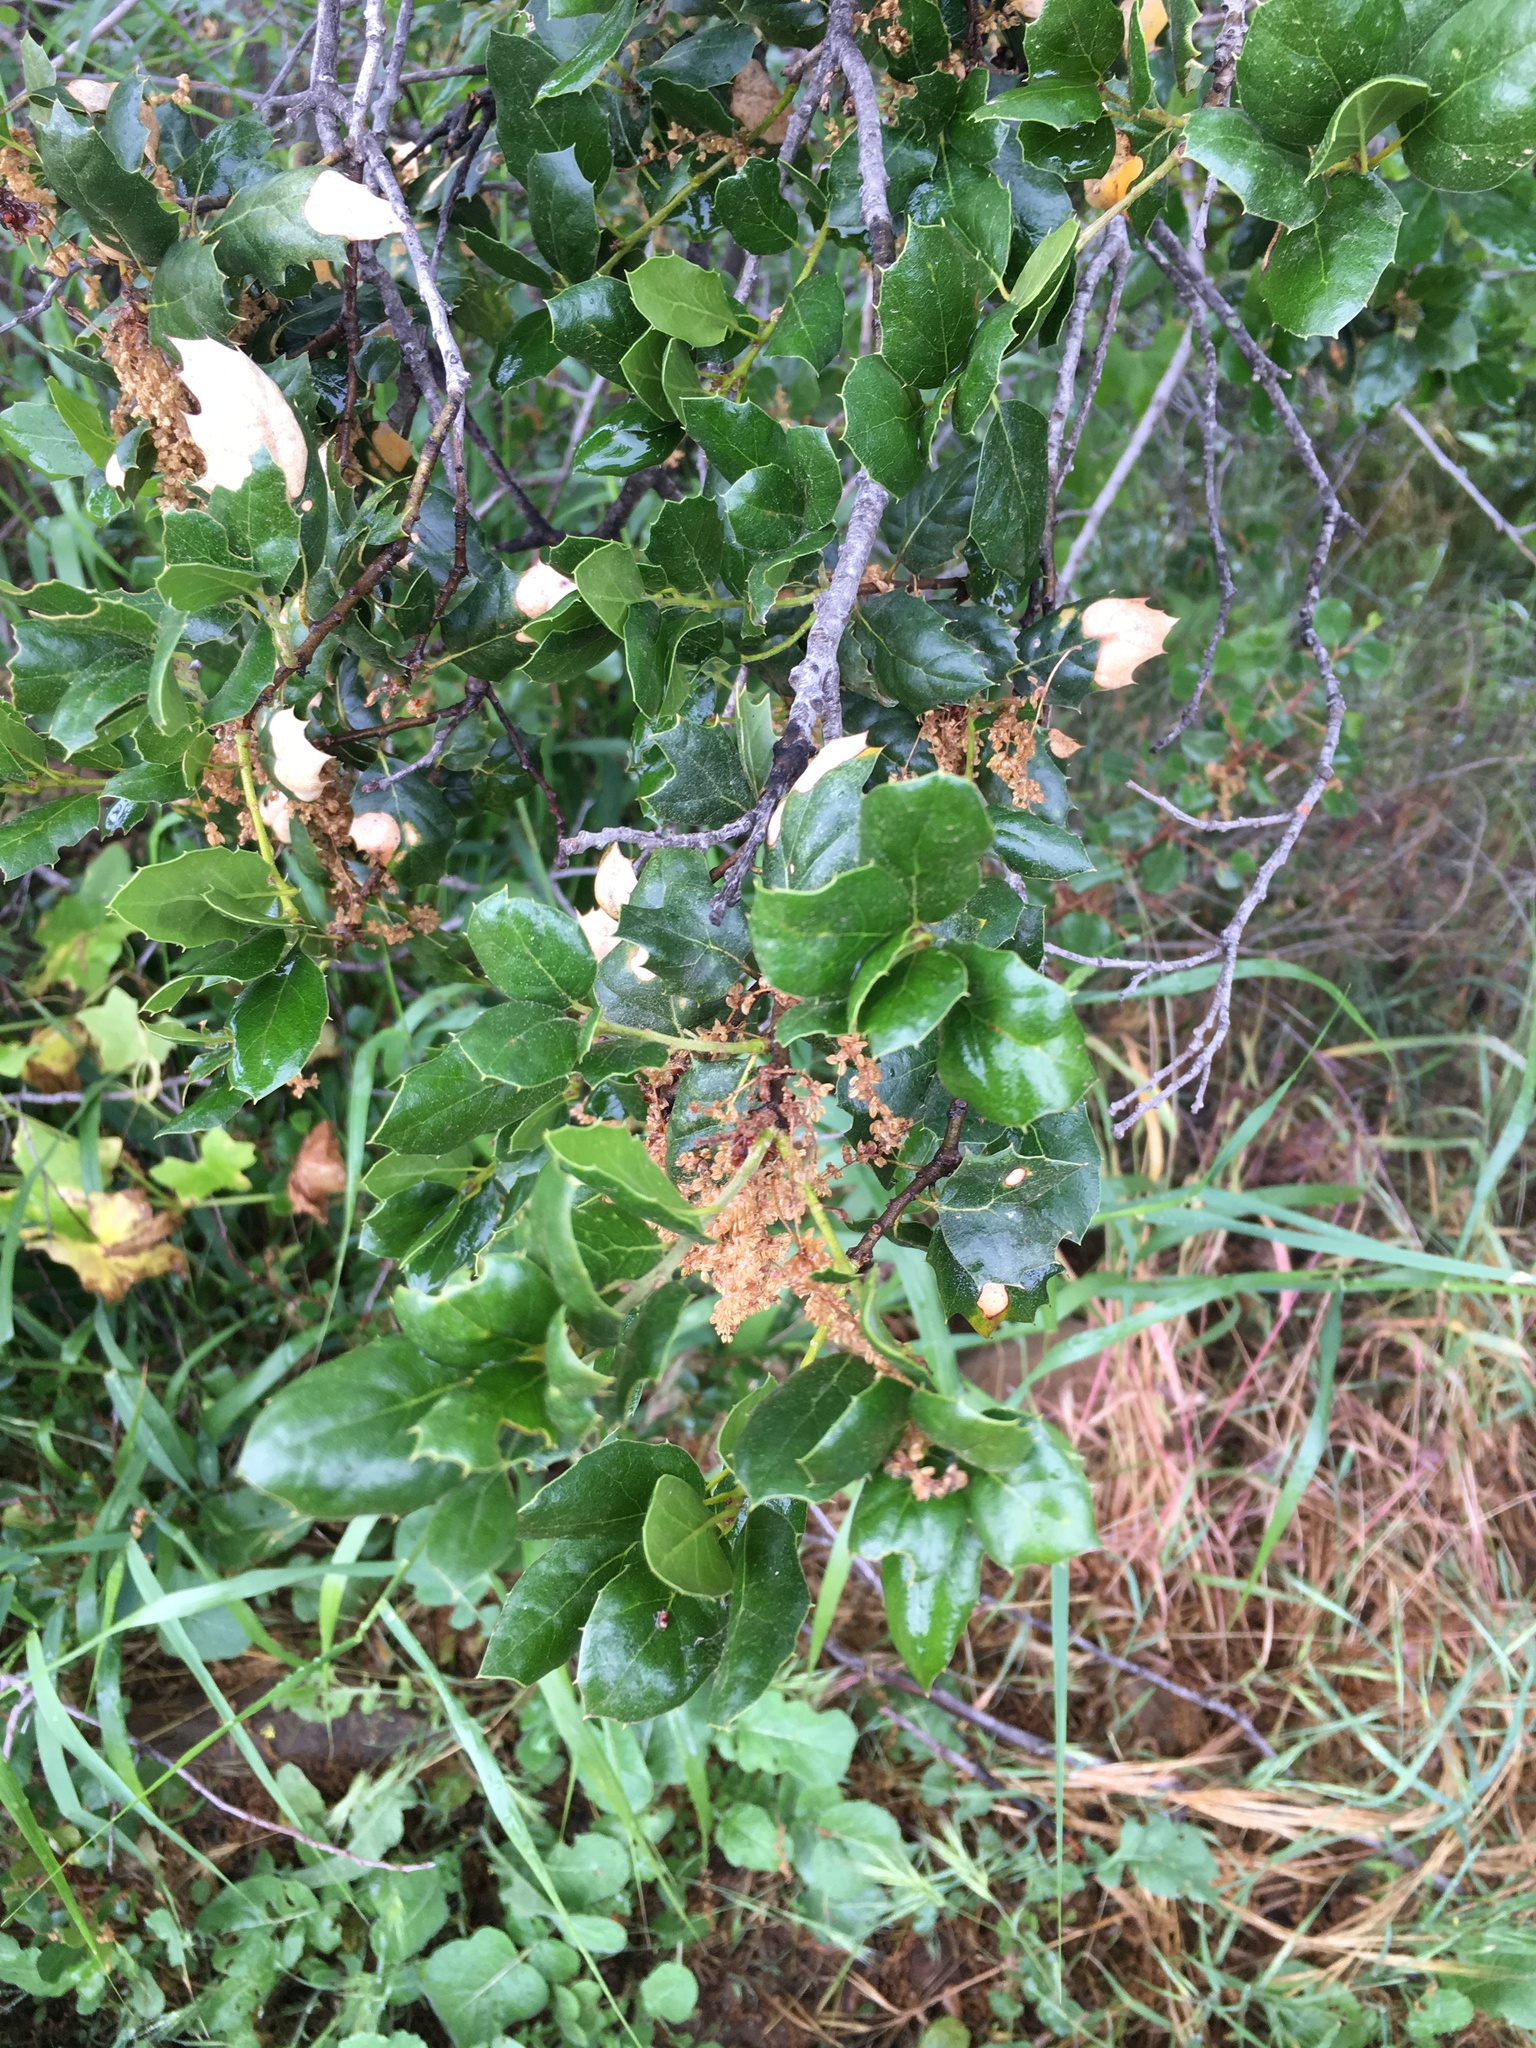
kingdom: Plantae
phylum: Tracheophyta
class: Magnoliopsida
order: Fagales
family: Fagaceae
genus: Quercus
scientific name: Quercus agrifolia
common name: California live oak
